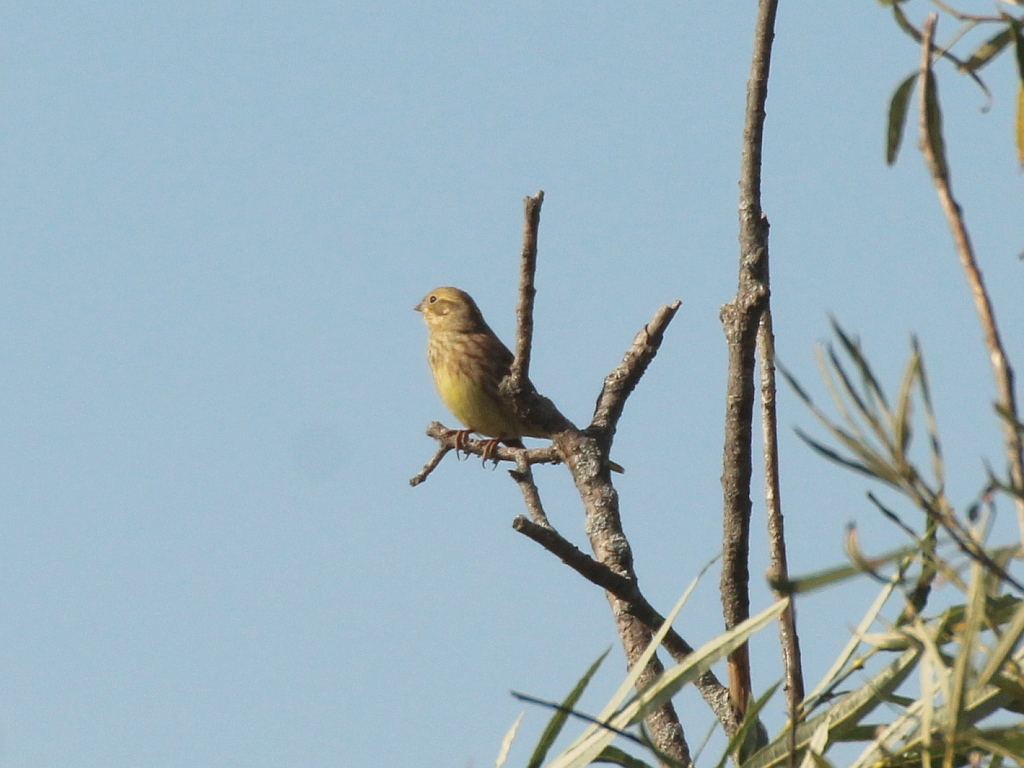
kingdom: Animalia
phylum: Chordata
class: Aves
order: Passeriformes
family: Emberizidae
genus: Emberiza
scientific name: Emberiza
